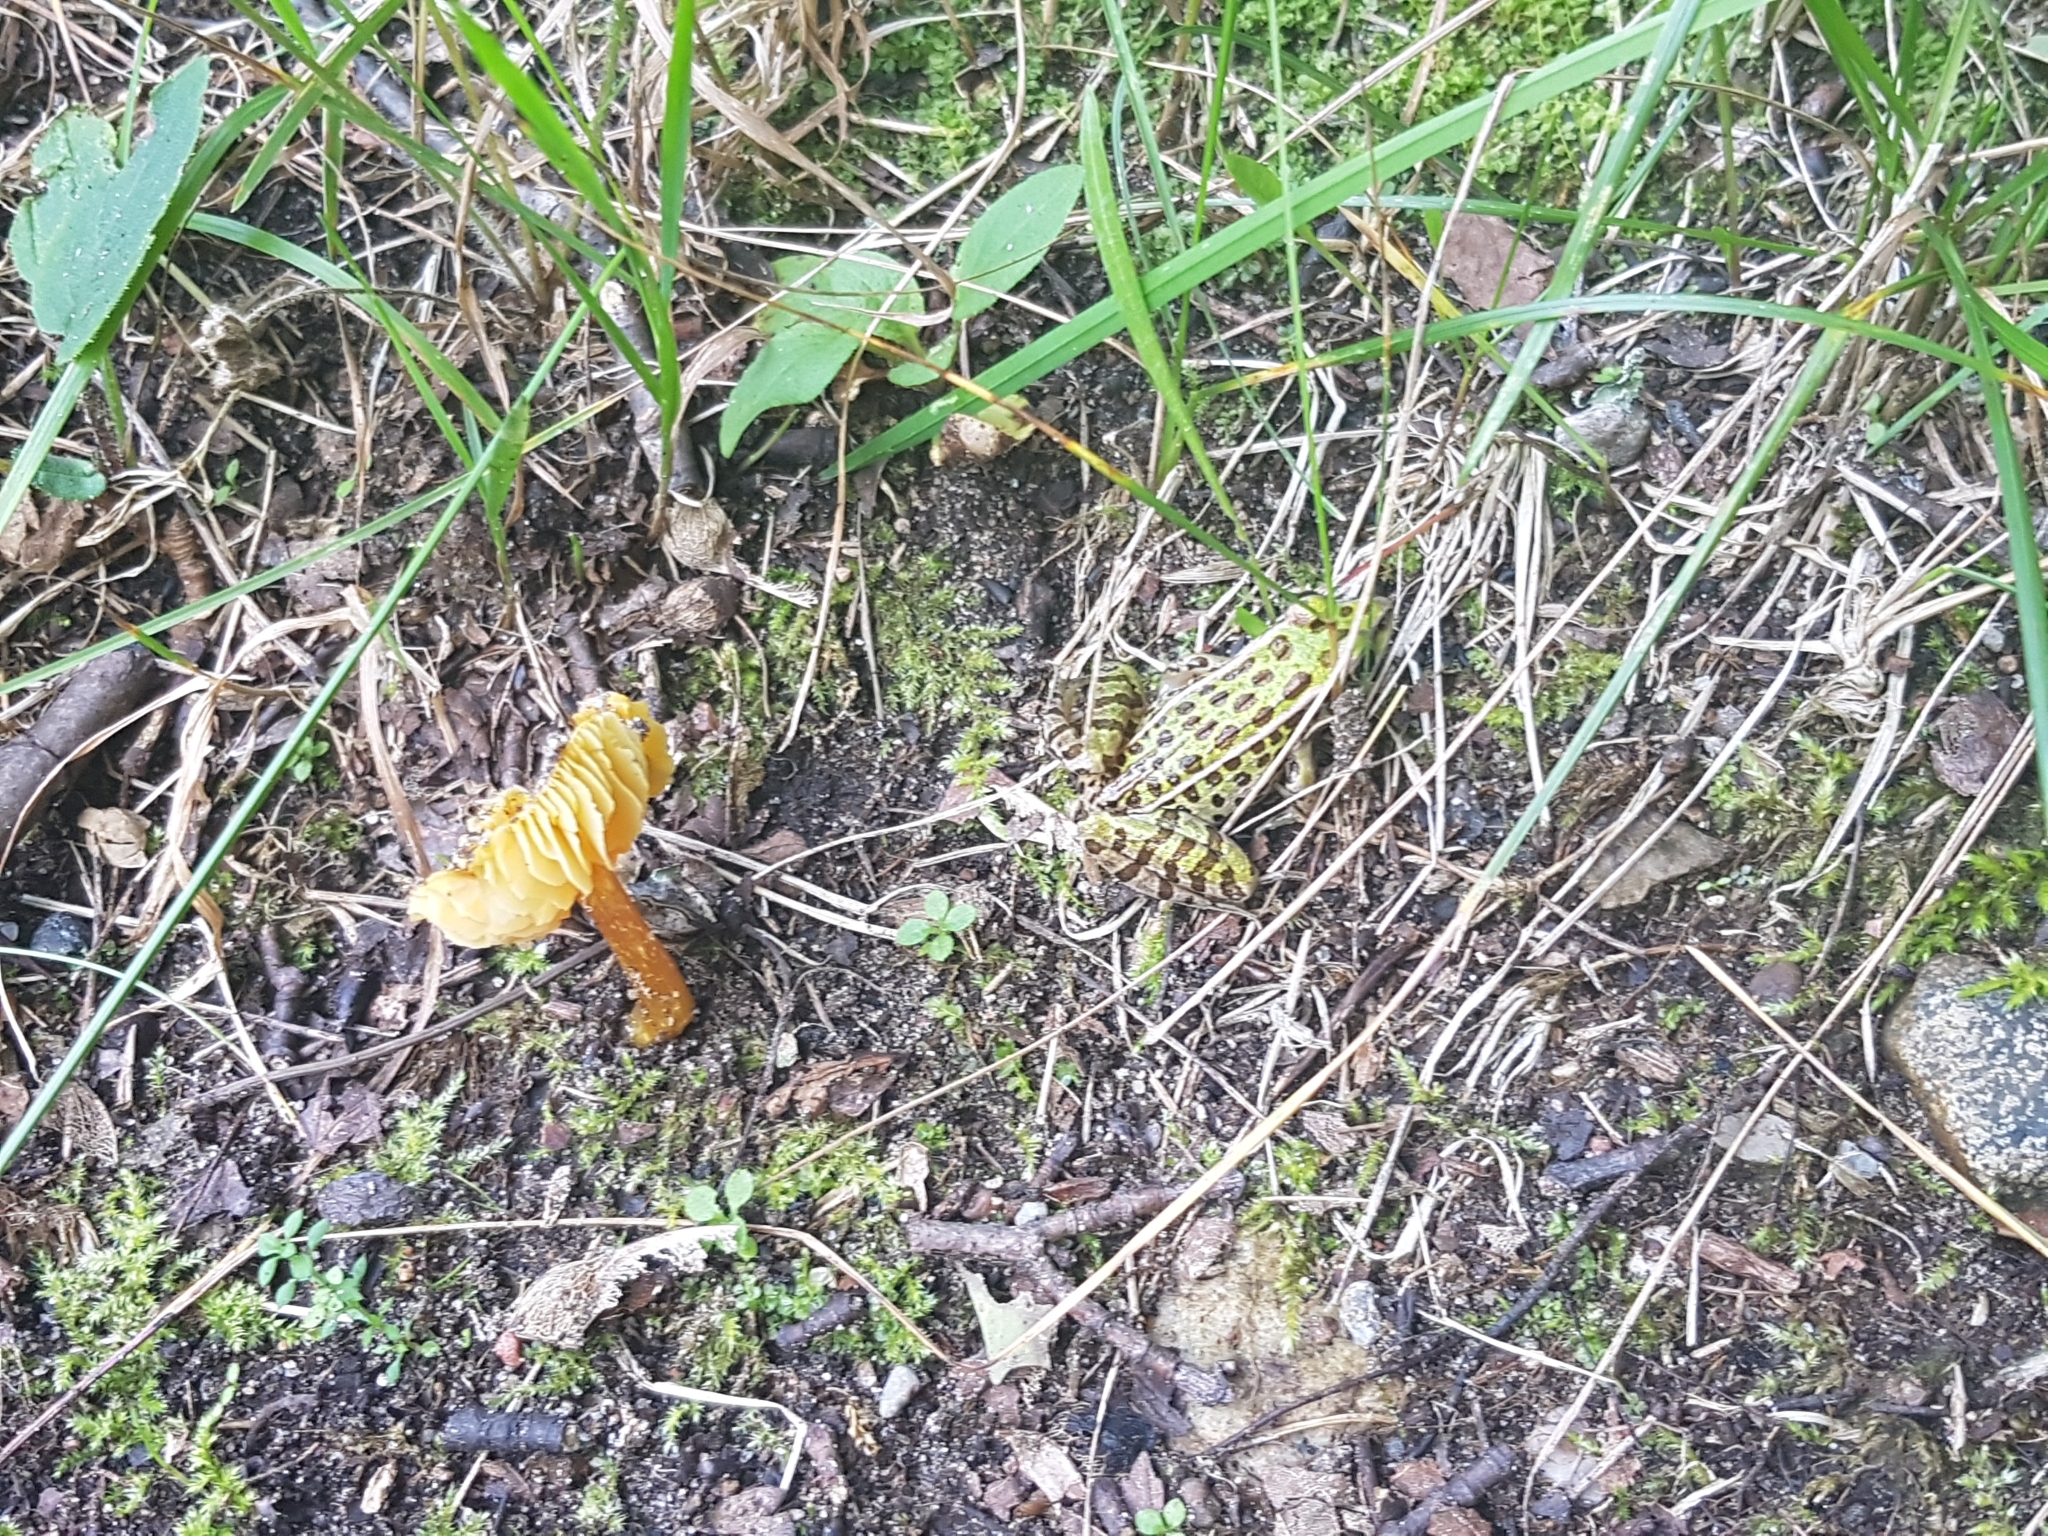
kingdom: Animalia
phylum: Chordata
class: Amphibia
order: Anura
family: Ranidae
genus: Lithobates
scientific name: Lithobates pipiens
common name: Northern leopard frog
